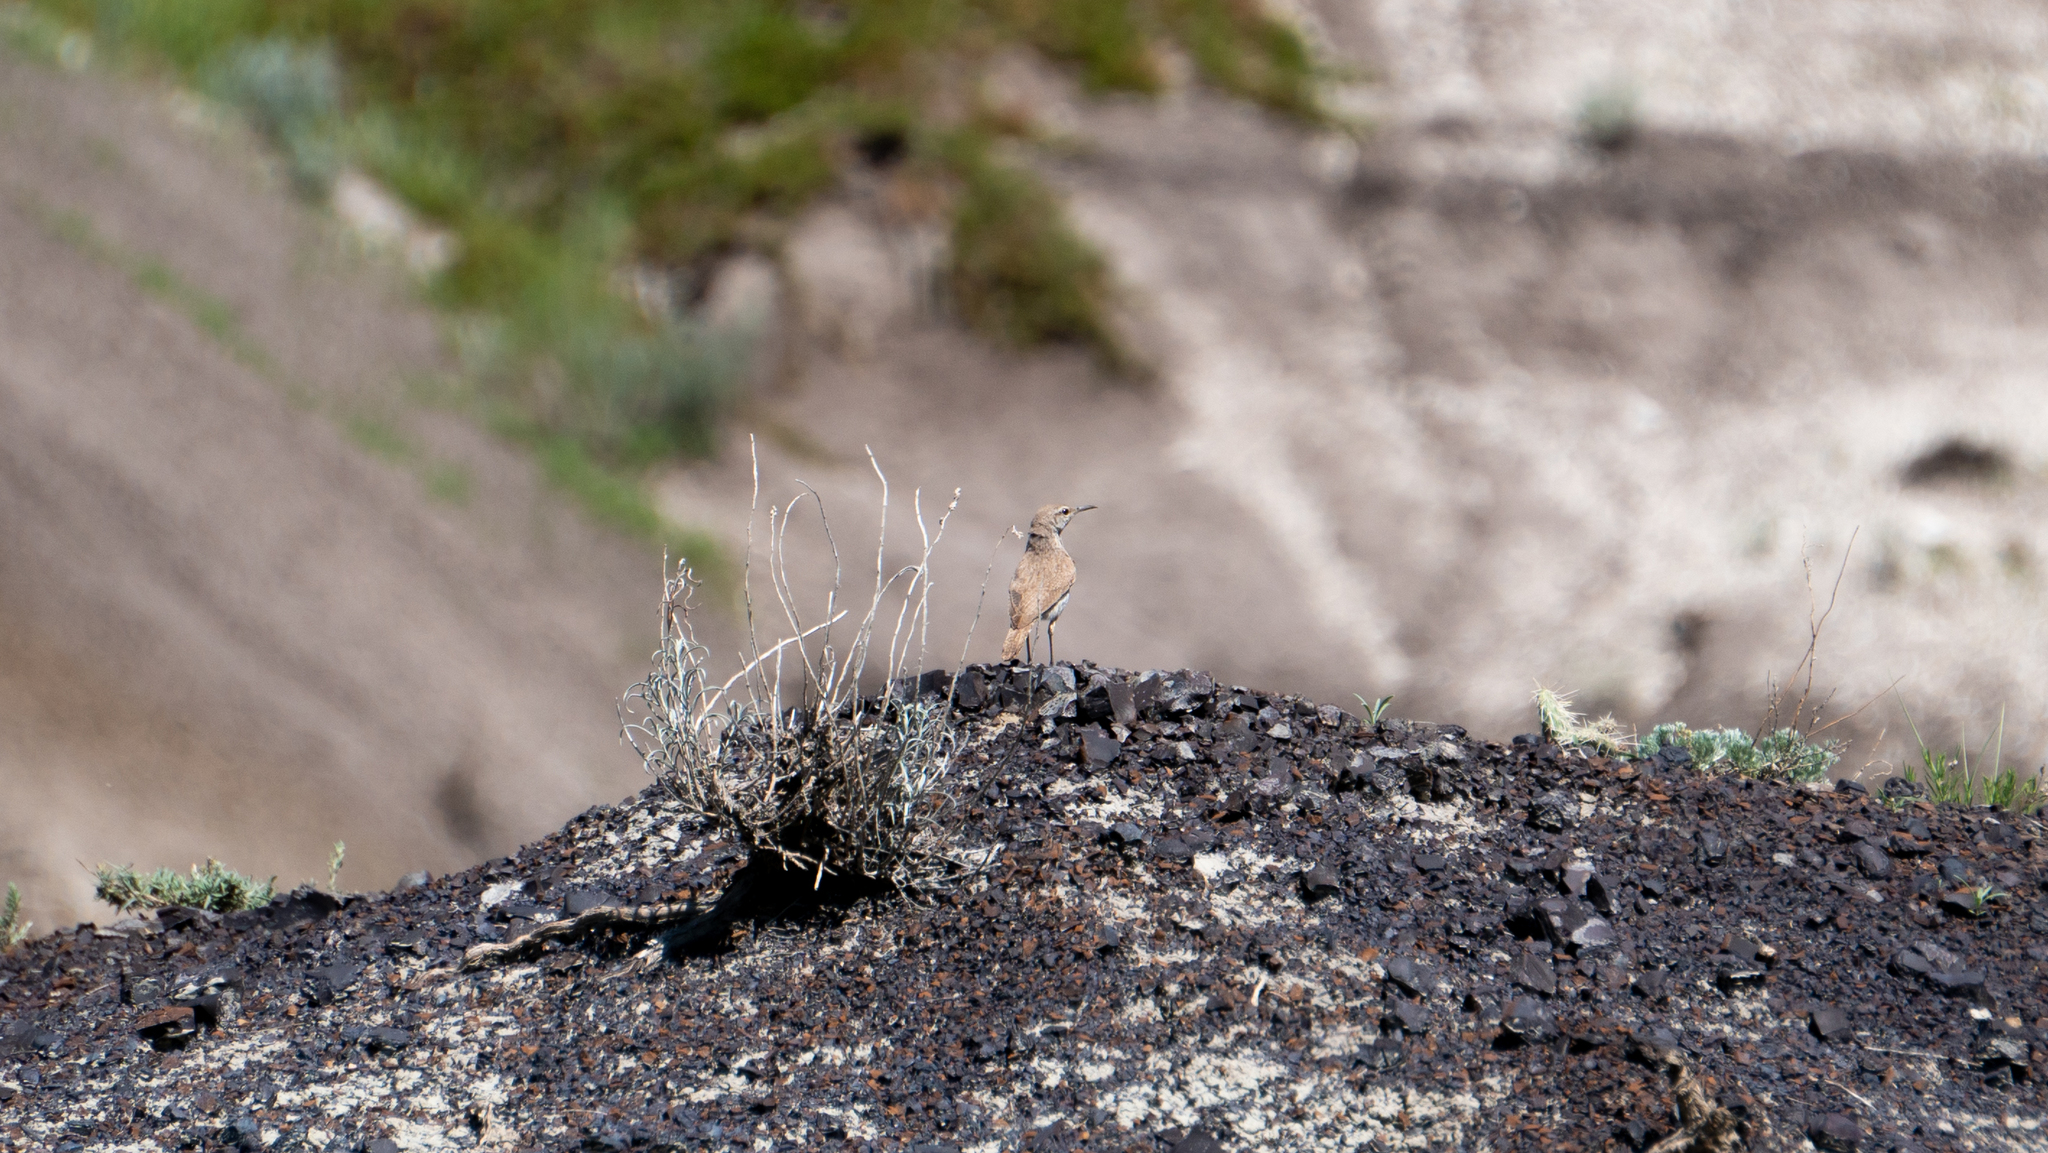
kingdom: Animalia
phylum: Chordata
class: Aves
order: Passeriformes
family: Troglodytidae
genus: Salpinctes
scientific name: Salpinctes obsoletus
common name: Rock wren
